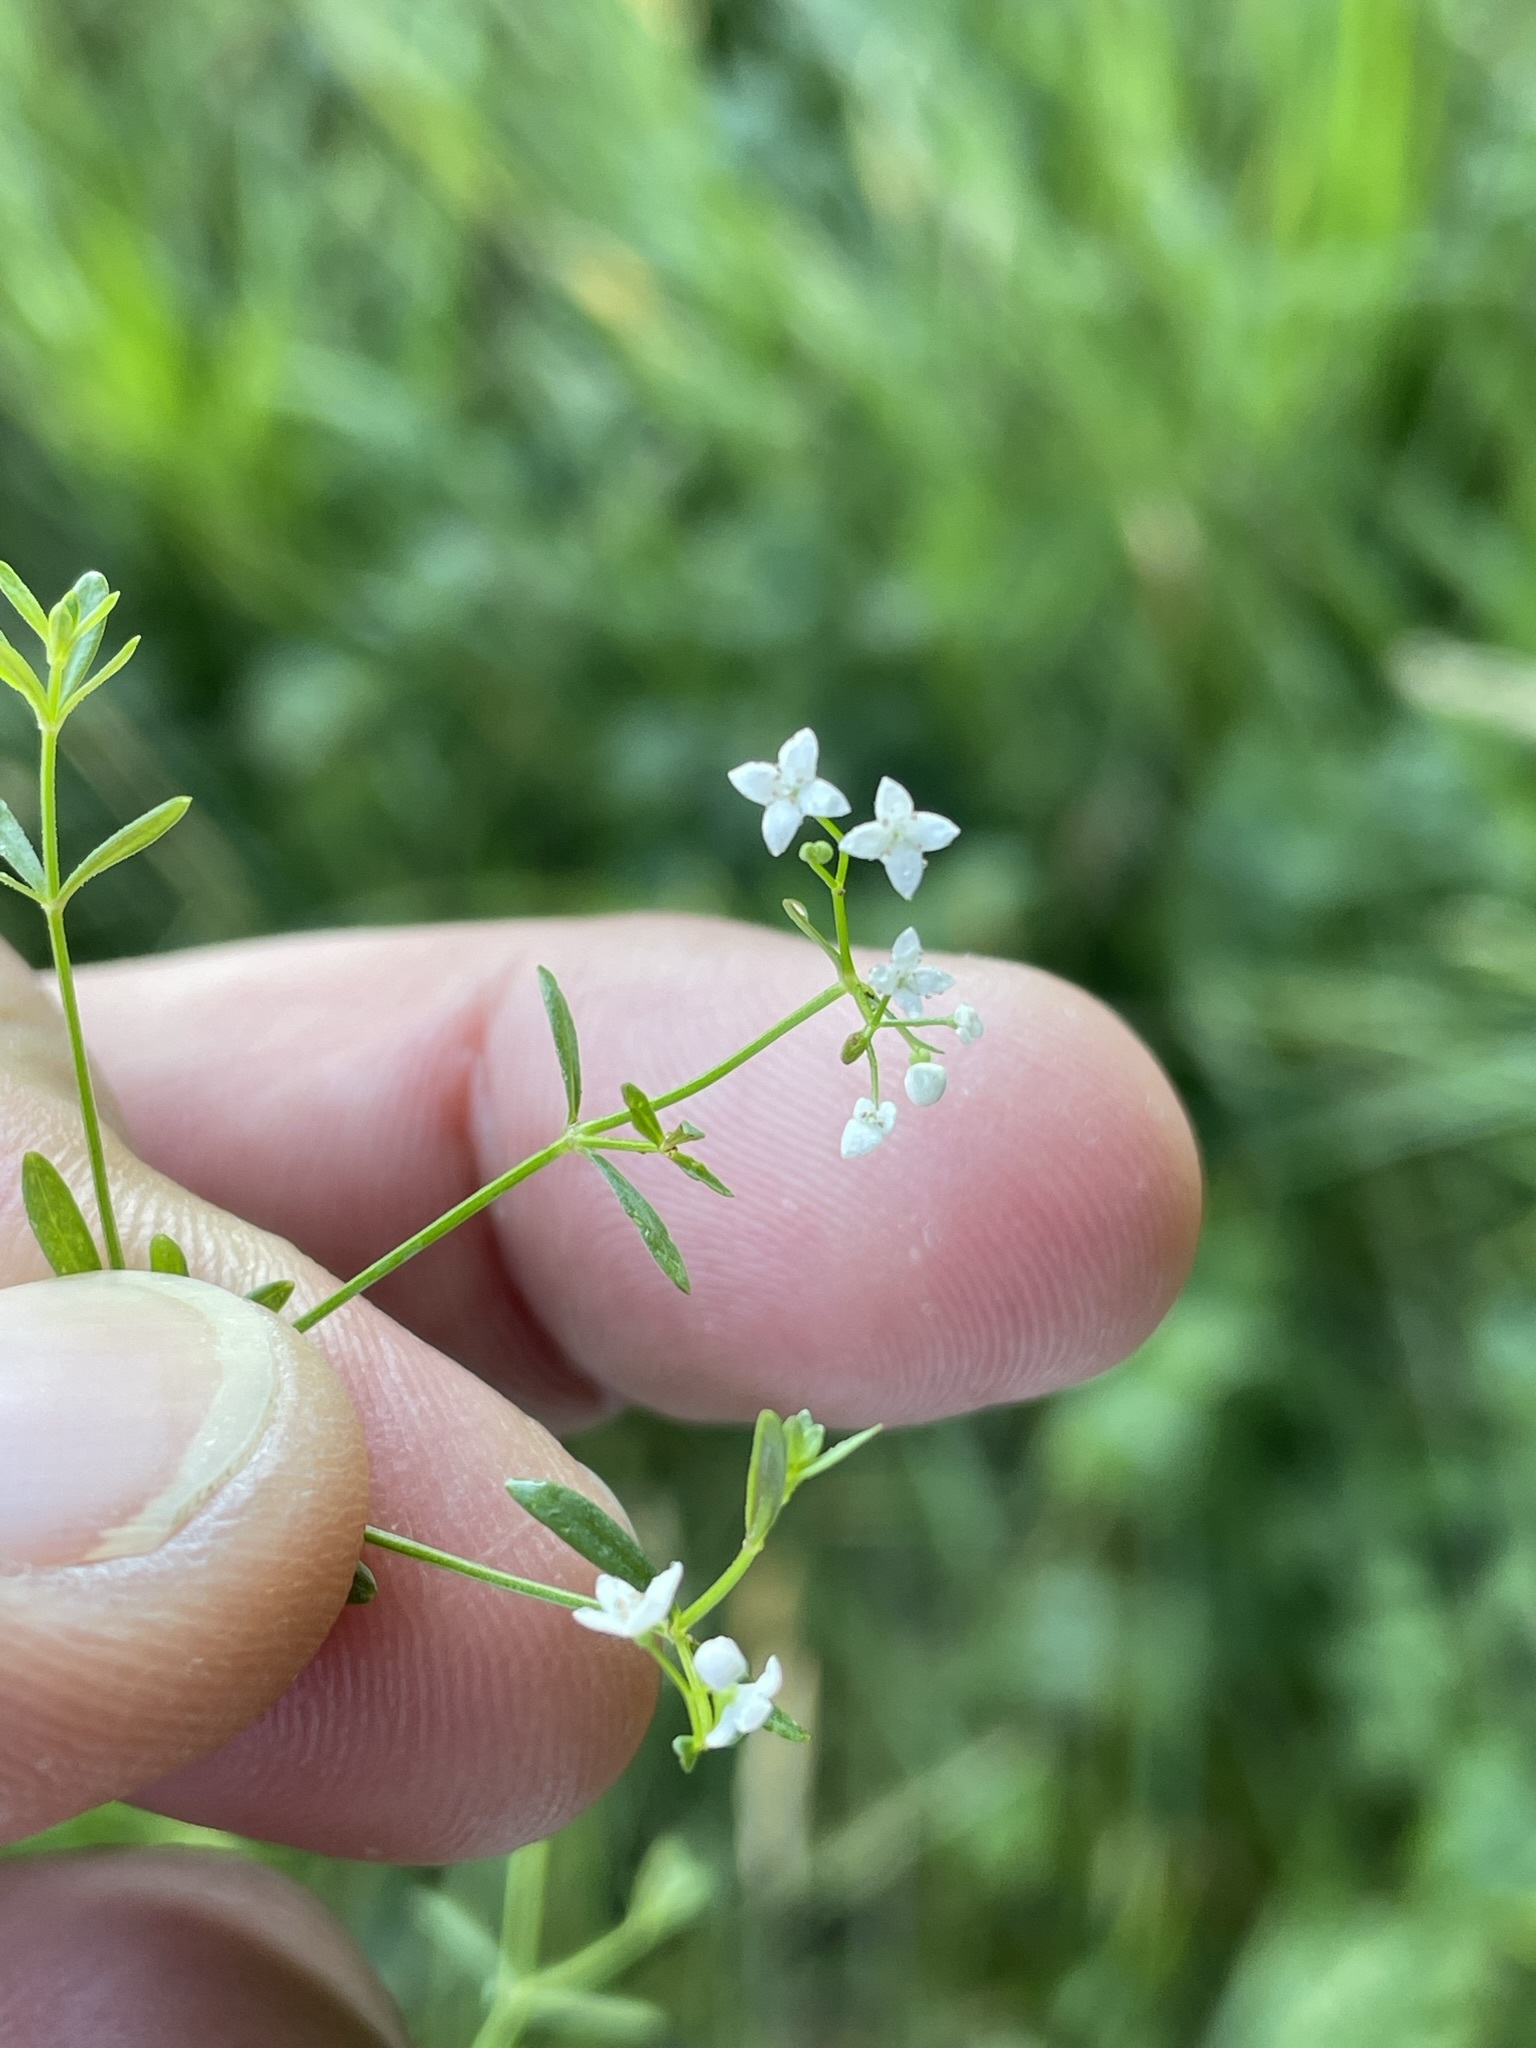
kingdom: Plantae
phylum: Tracheophyta
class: Magnoliopsida
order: Gentianales
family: Rubiaceae
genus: Galium
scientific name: Galium palustre
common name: Common marsh-bedstraw
